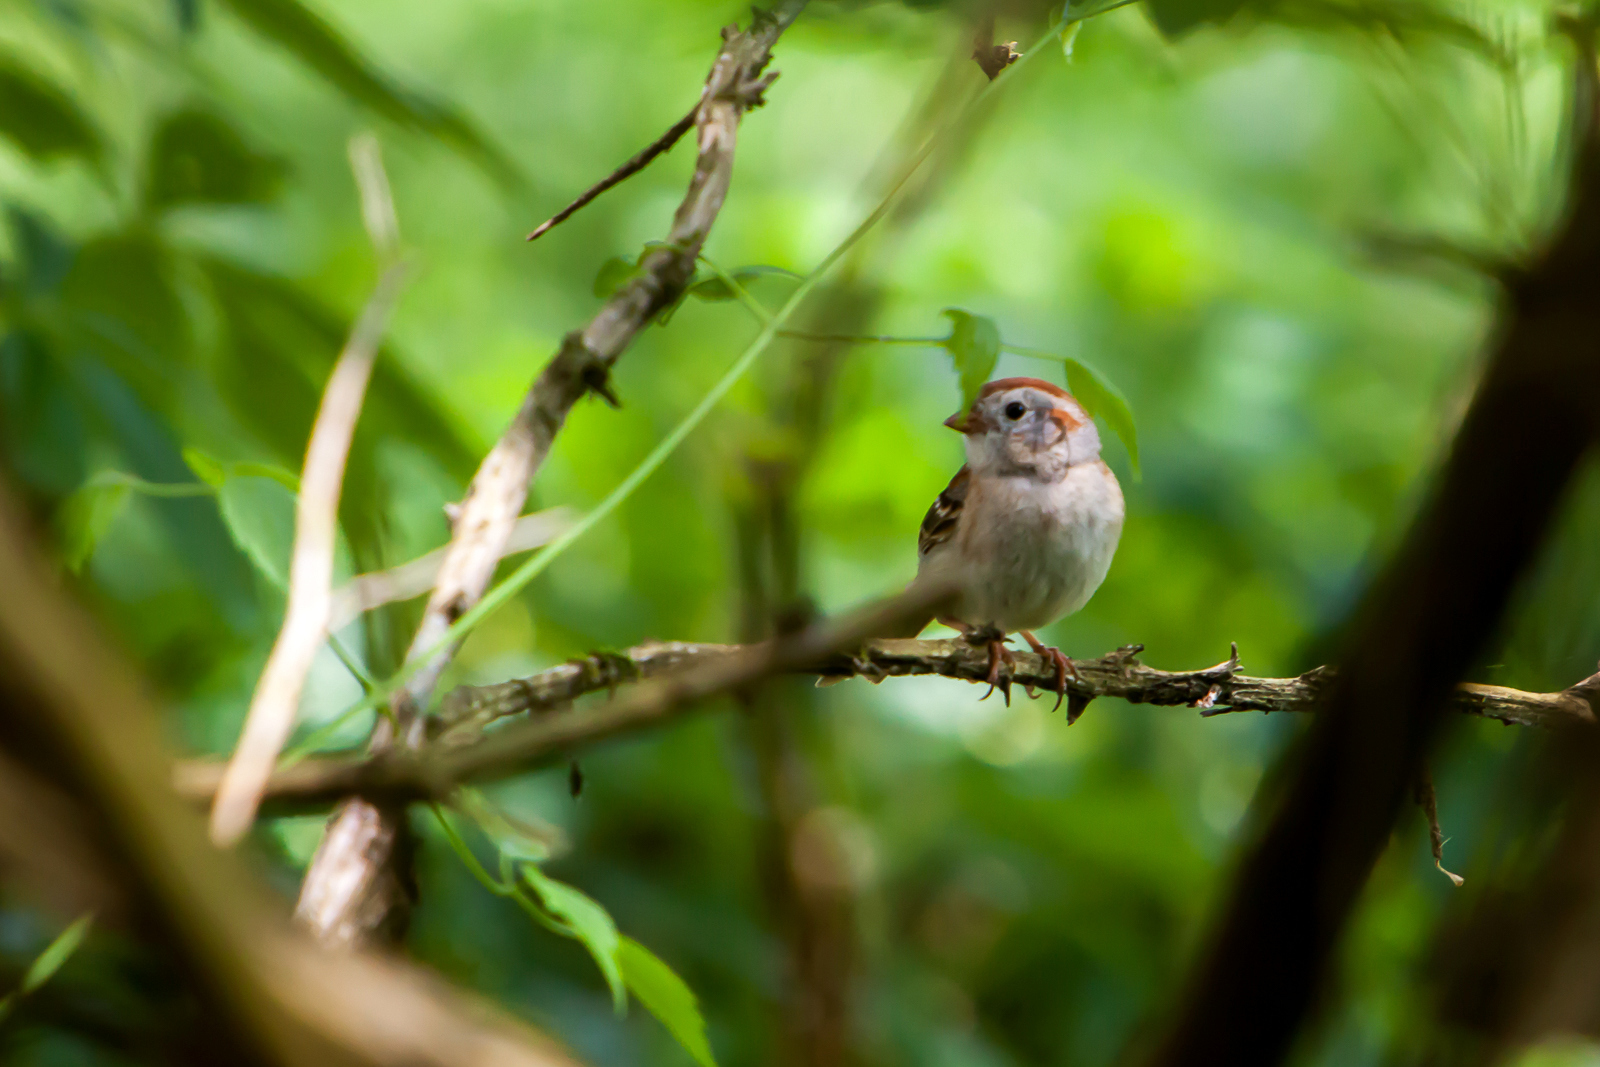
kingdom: Animalia
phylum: Chordata
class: Aves
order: Passeriformes
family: Passerellidae
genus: Spizella
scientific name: Spizella pusilla
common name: Field sparrow
